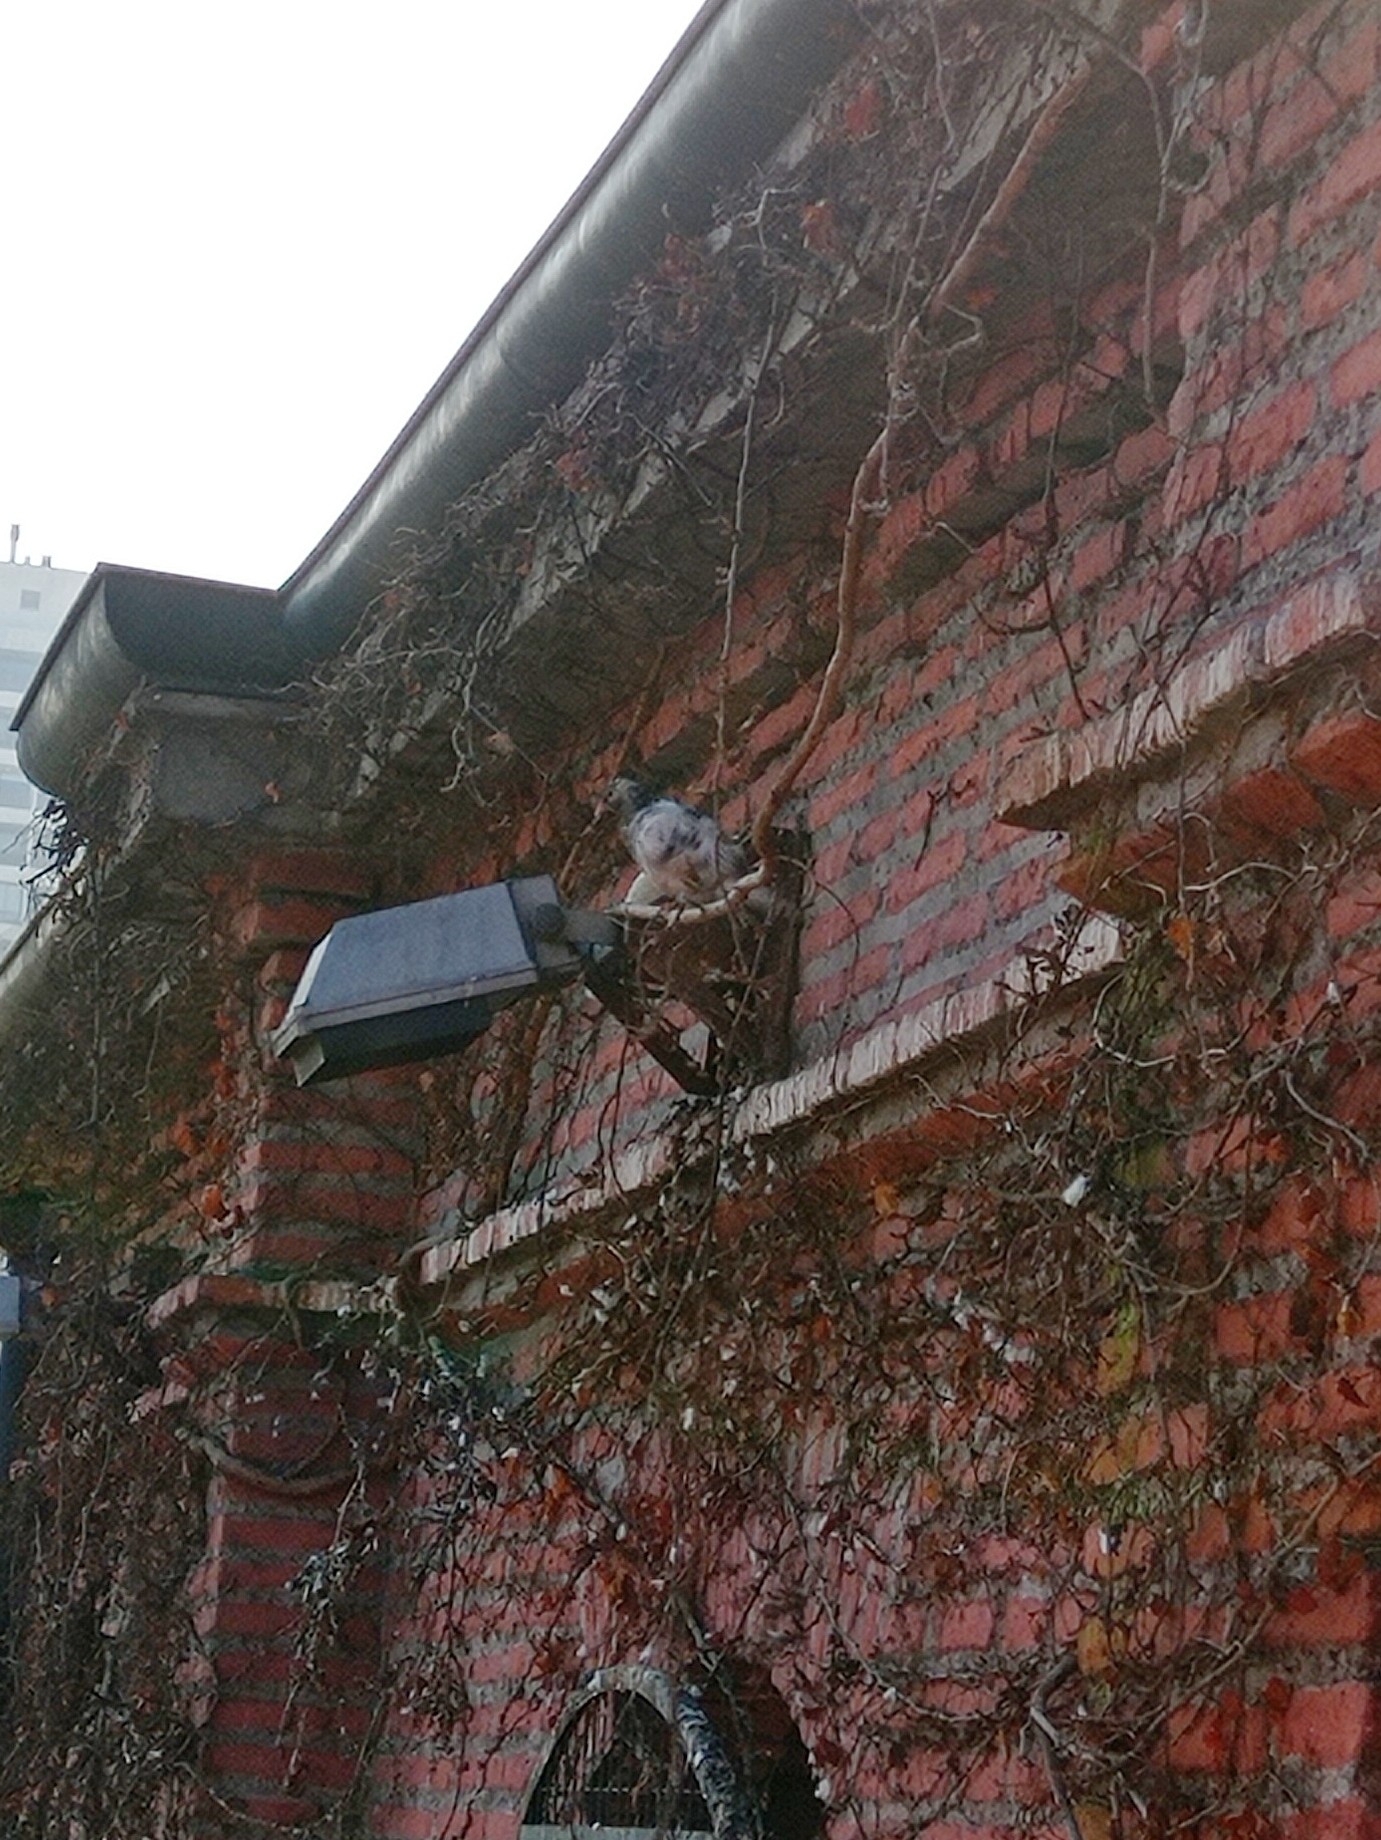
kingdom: Animalia
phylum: Chordata
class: Aves
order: Columbiformes
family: Columbidae
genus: Columba
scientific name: Columba livia
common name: Rock pigeon
